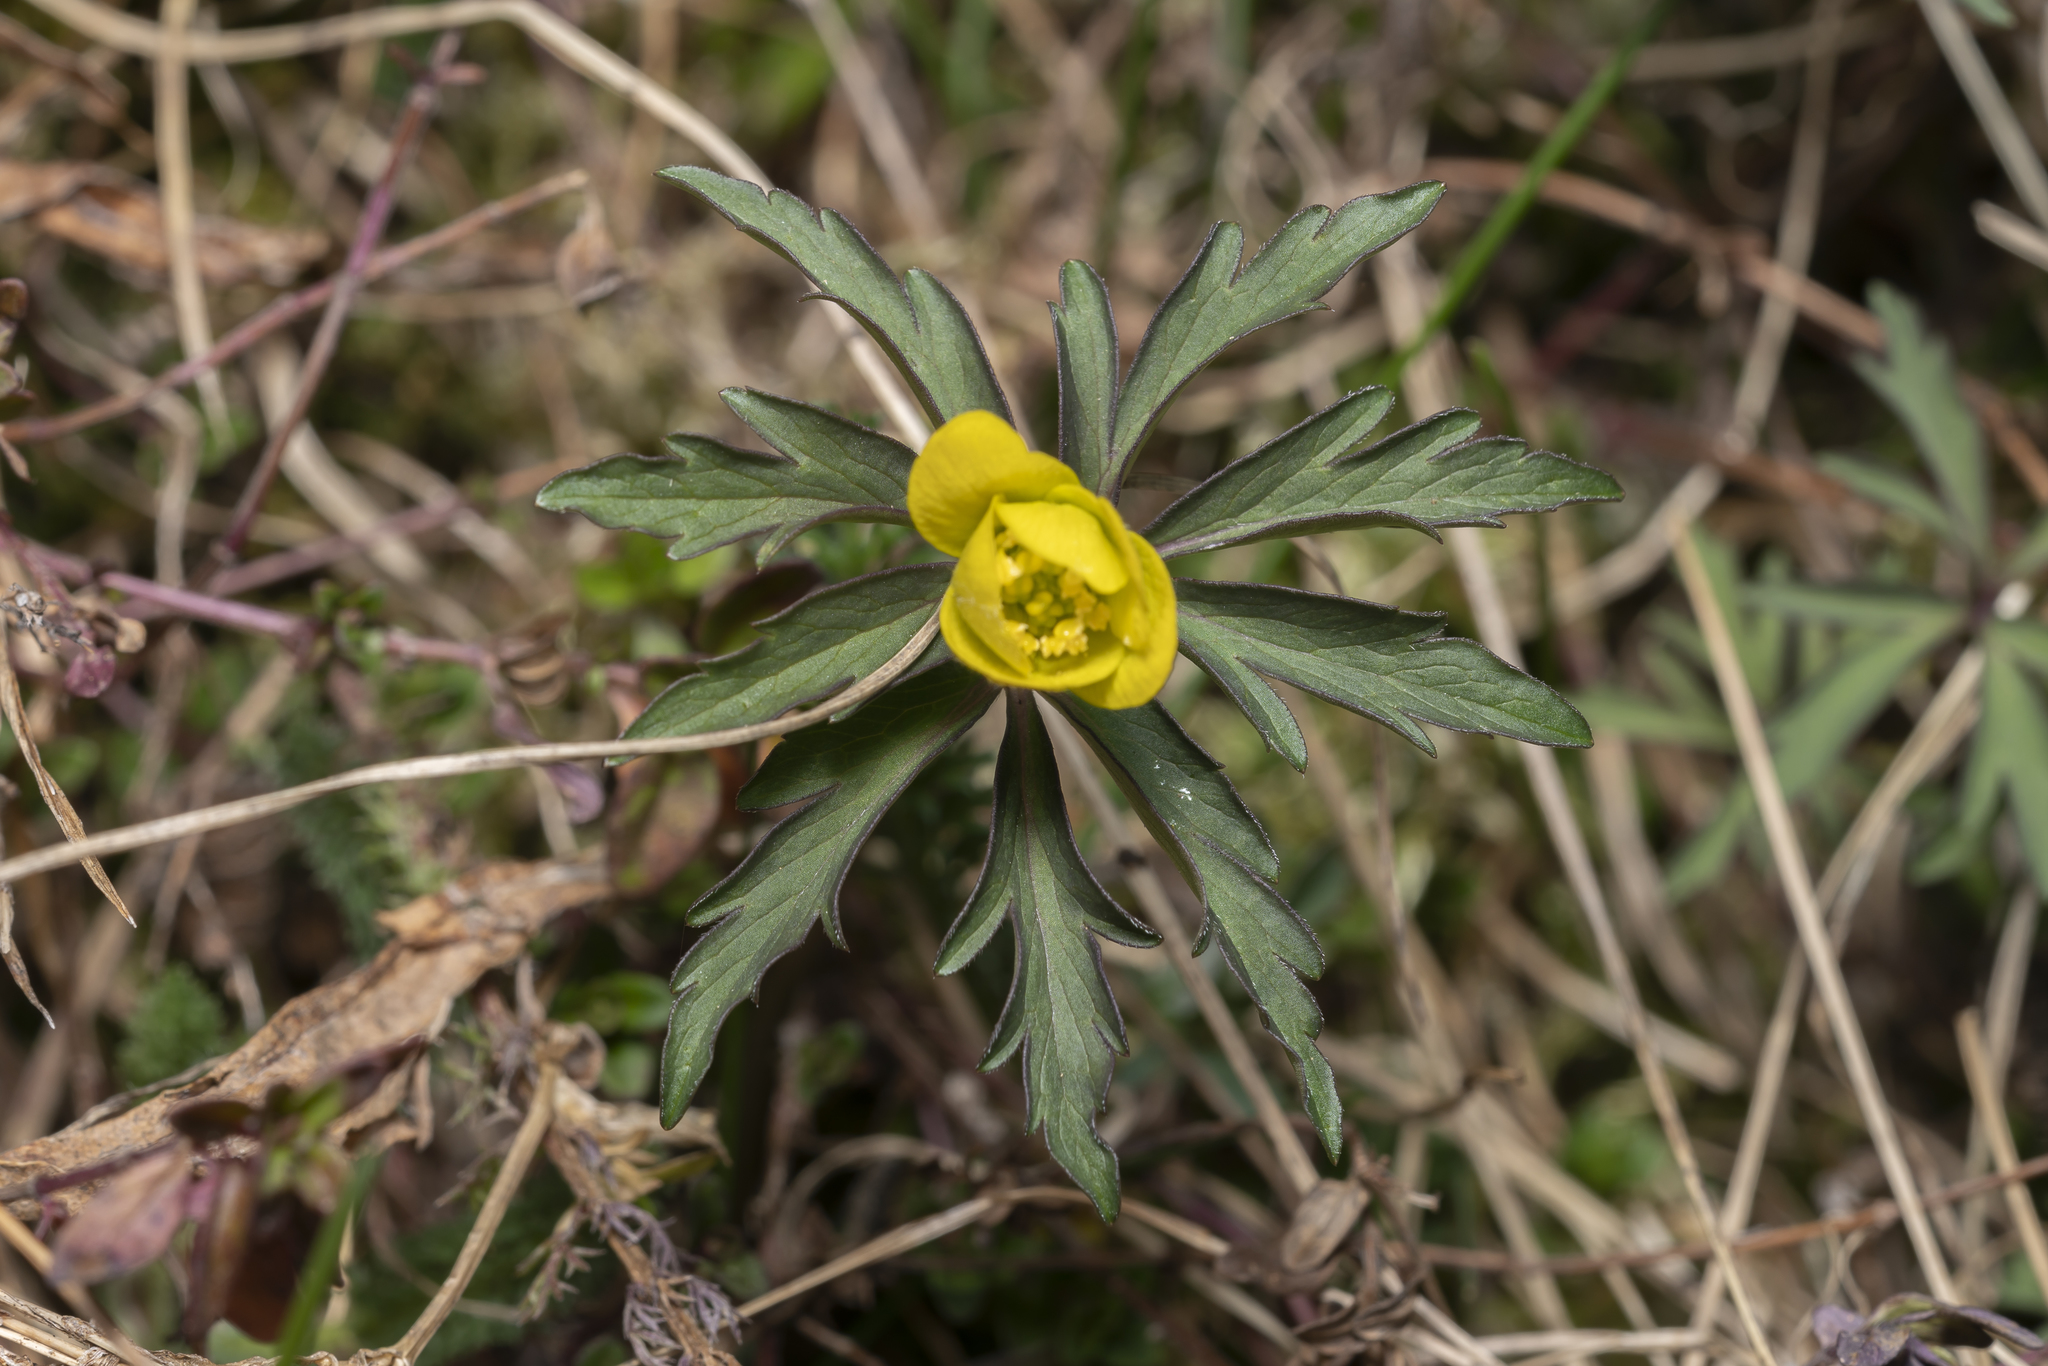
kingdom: Plantae
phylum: Tracheophyta
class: Magnoliopsida
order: Ranunculales
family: Ranunculaceae
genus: Anemone
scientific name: Anemone ranunculoides
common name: Yellow anemone
